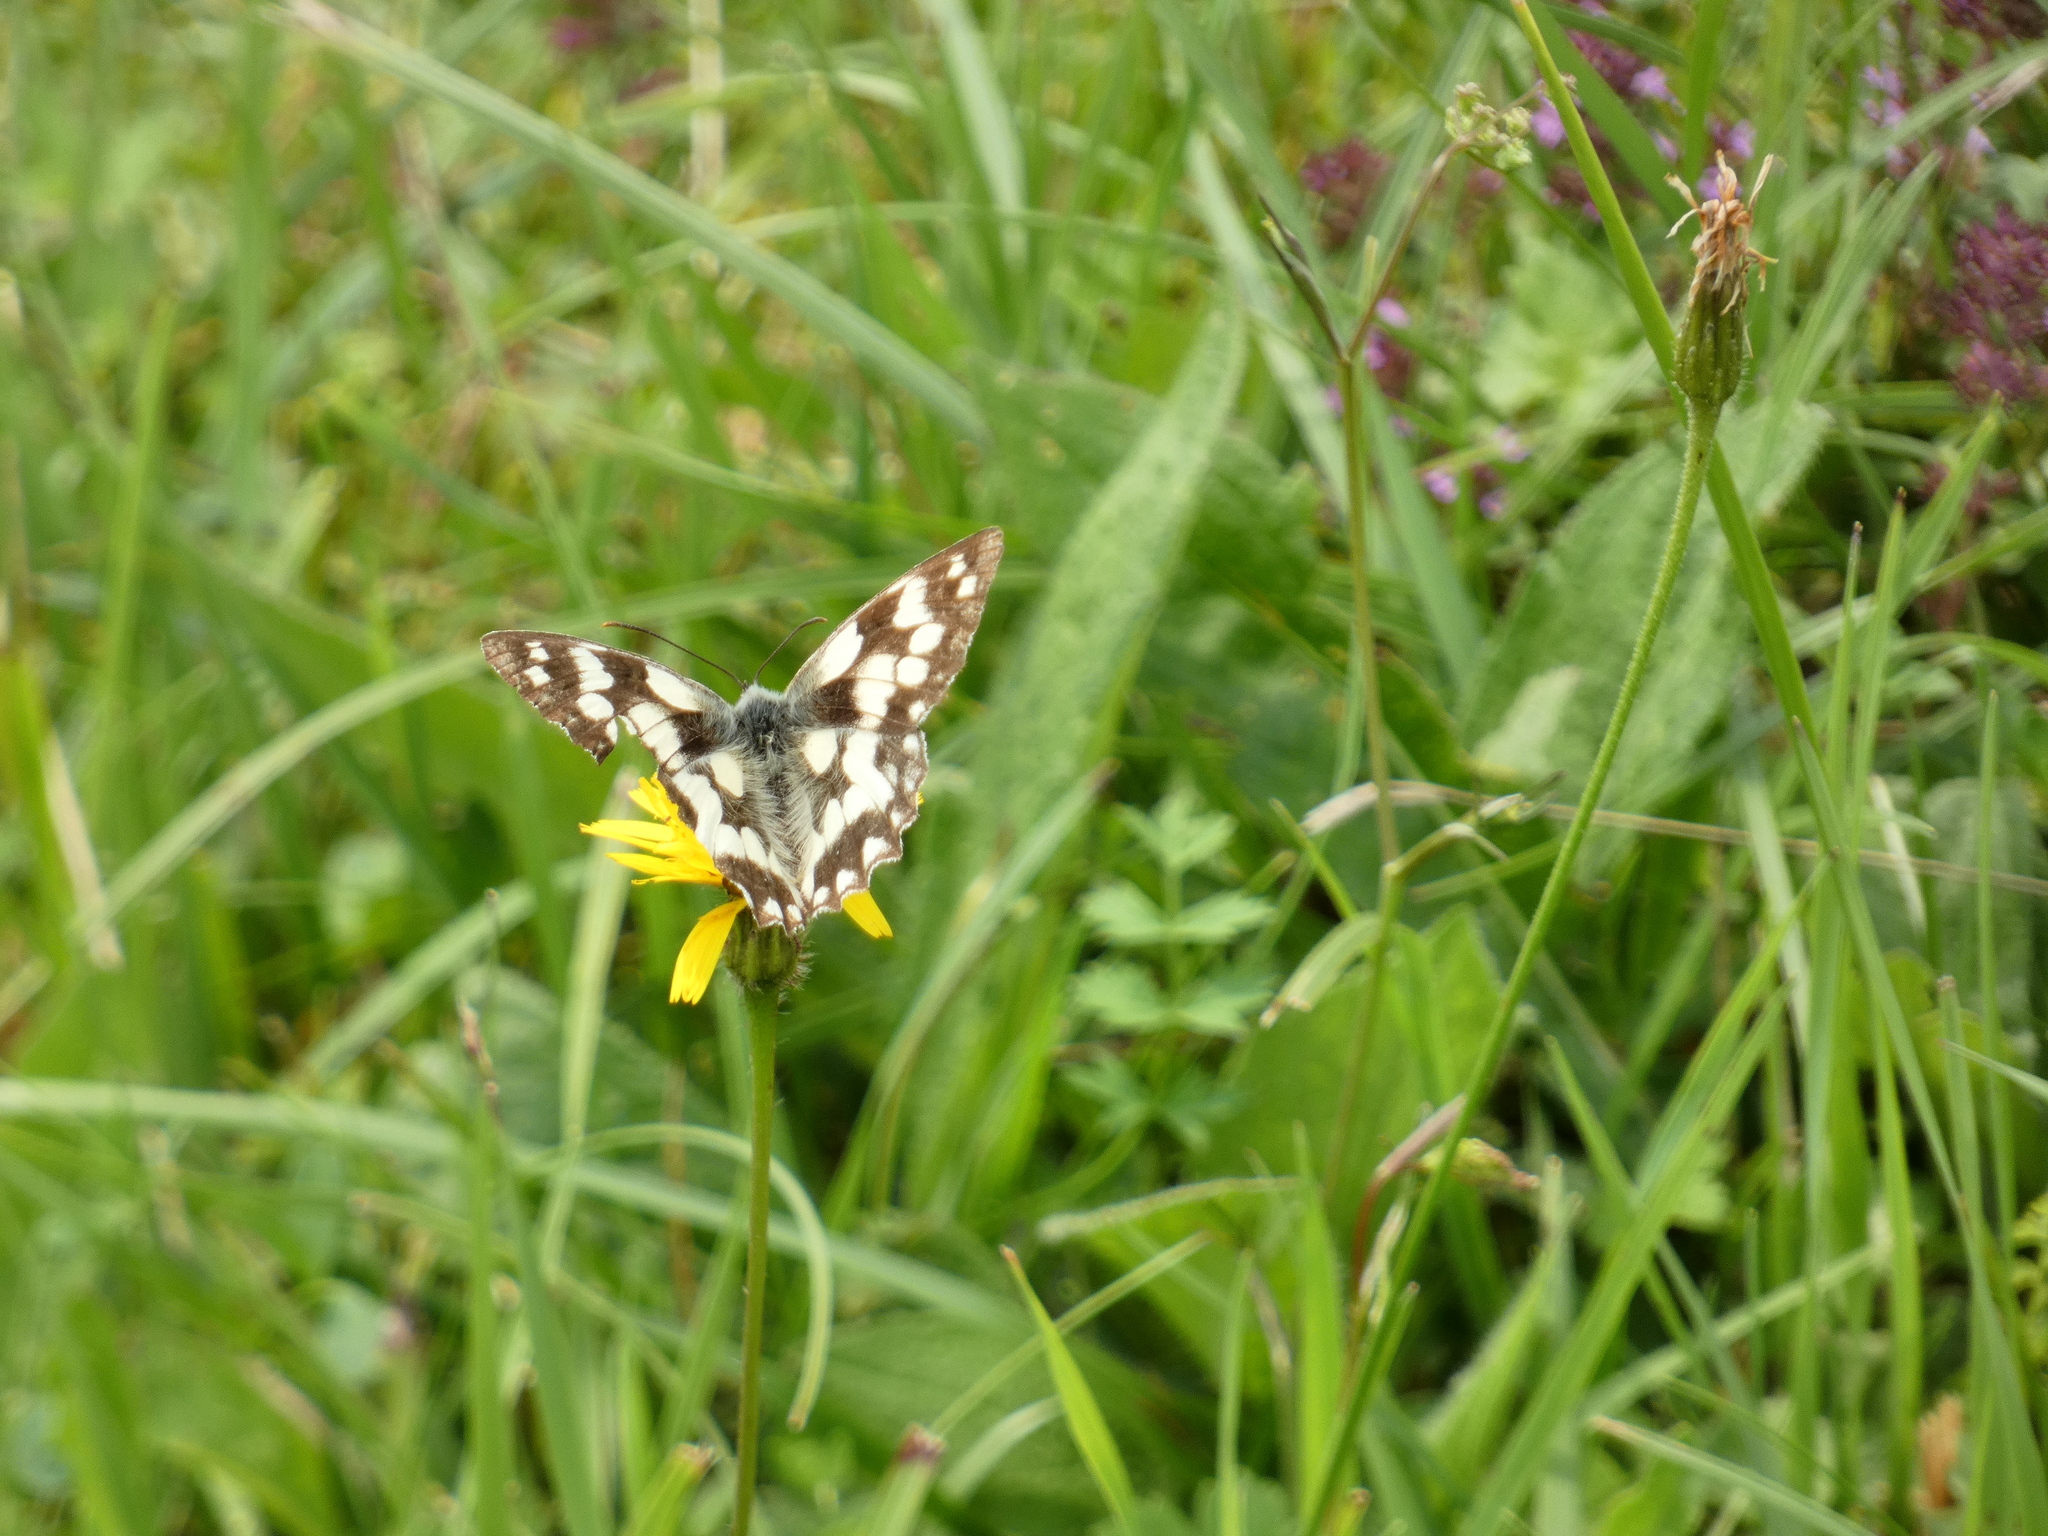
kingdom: Animalia
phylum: Arthropoda
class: Insecta
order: Lepidoptera
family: Nymphalidae
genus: Melanargia
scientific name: Melanargia galathea
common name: Marbled white
